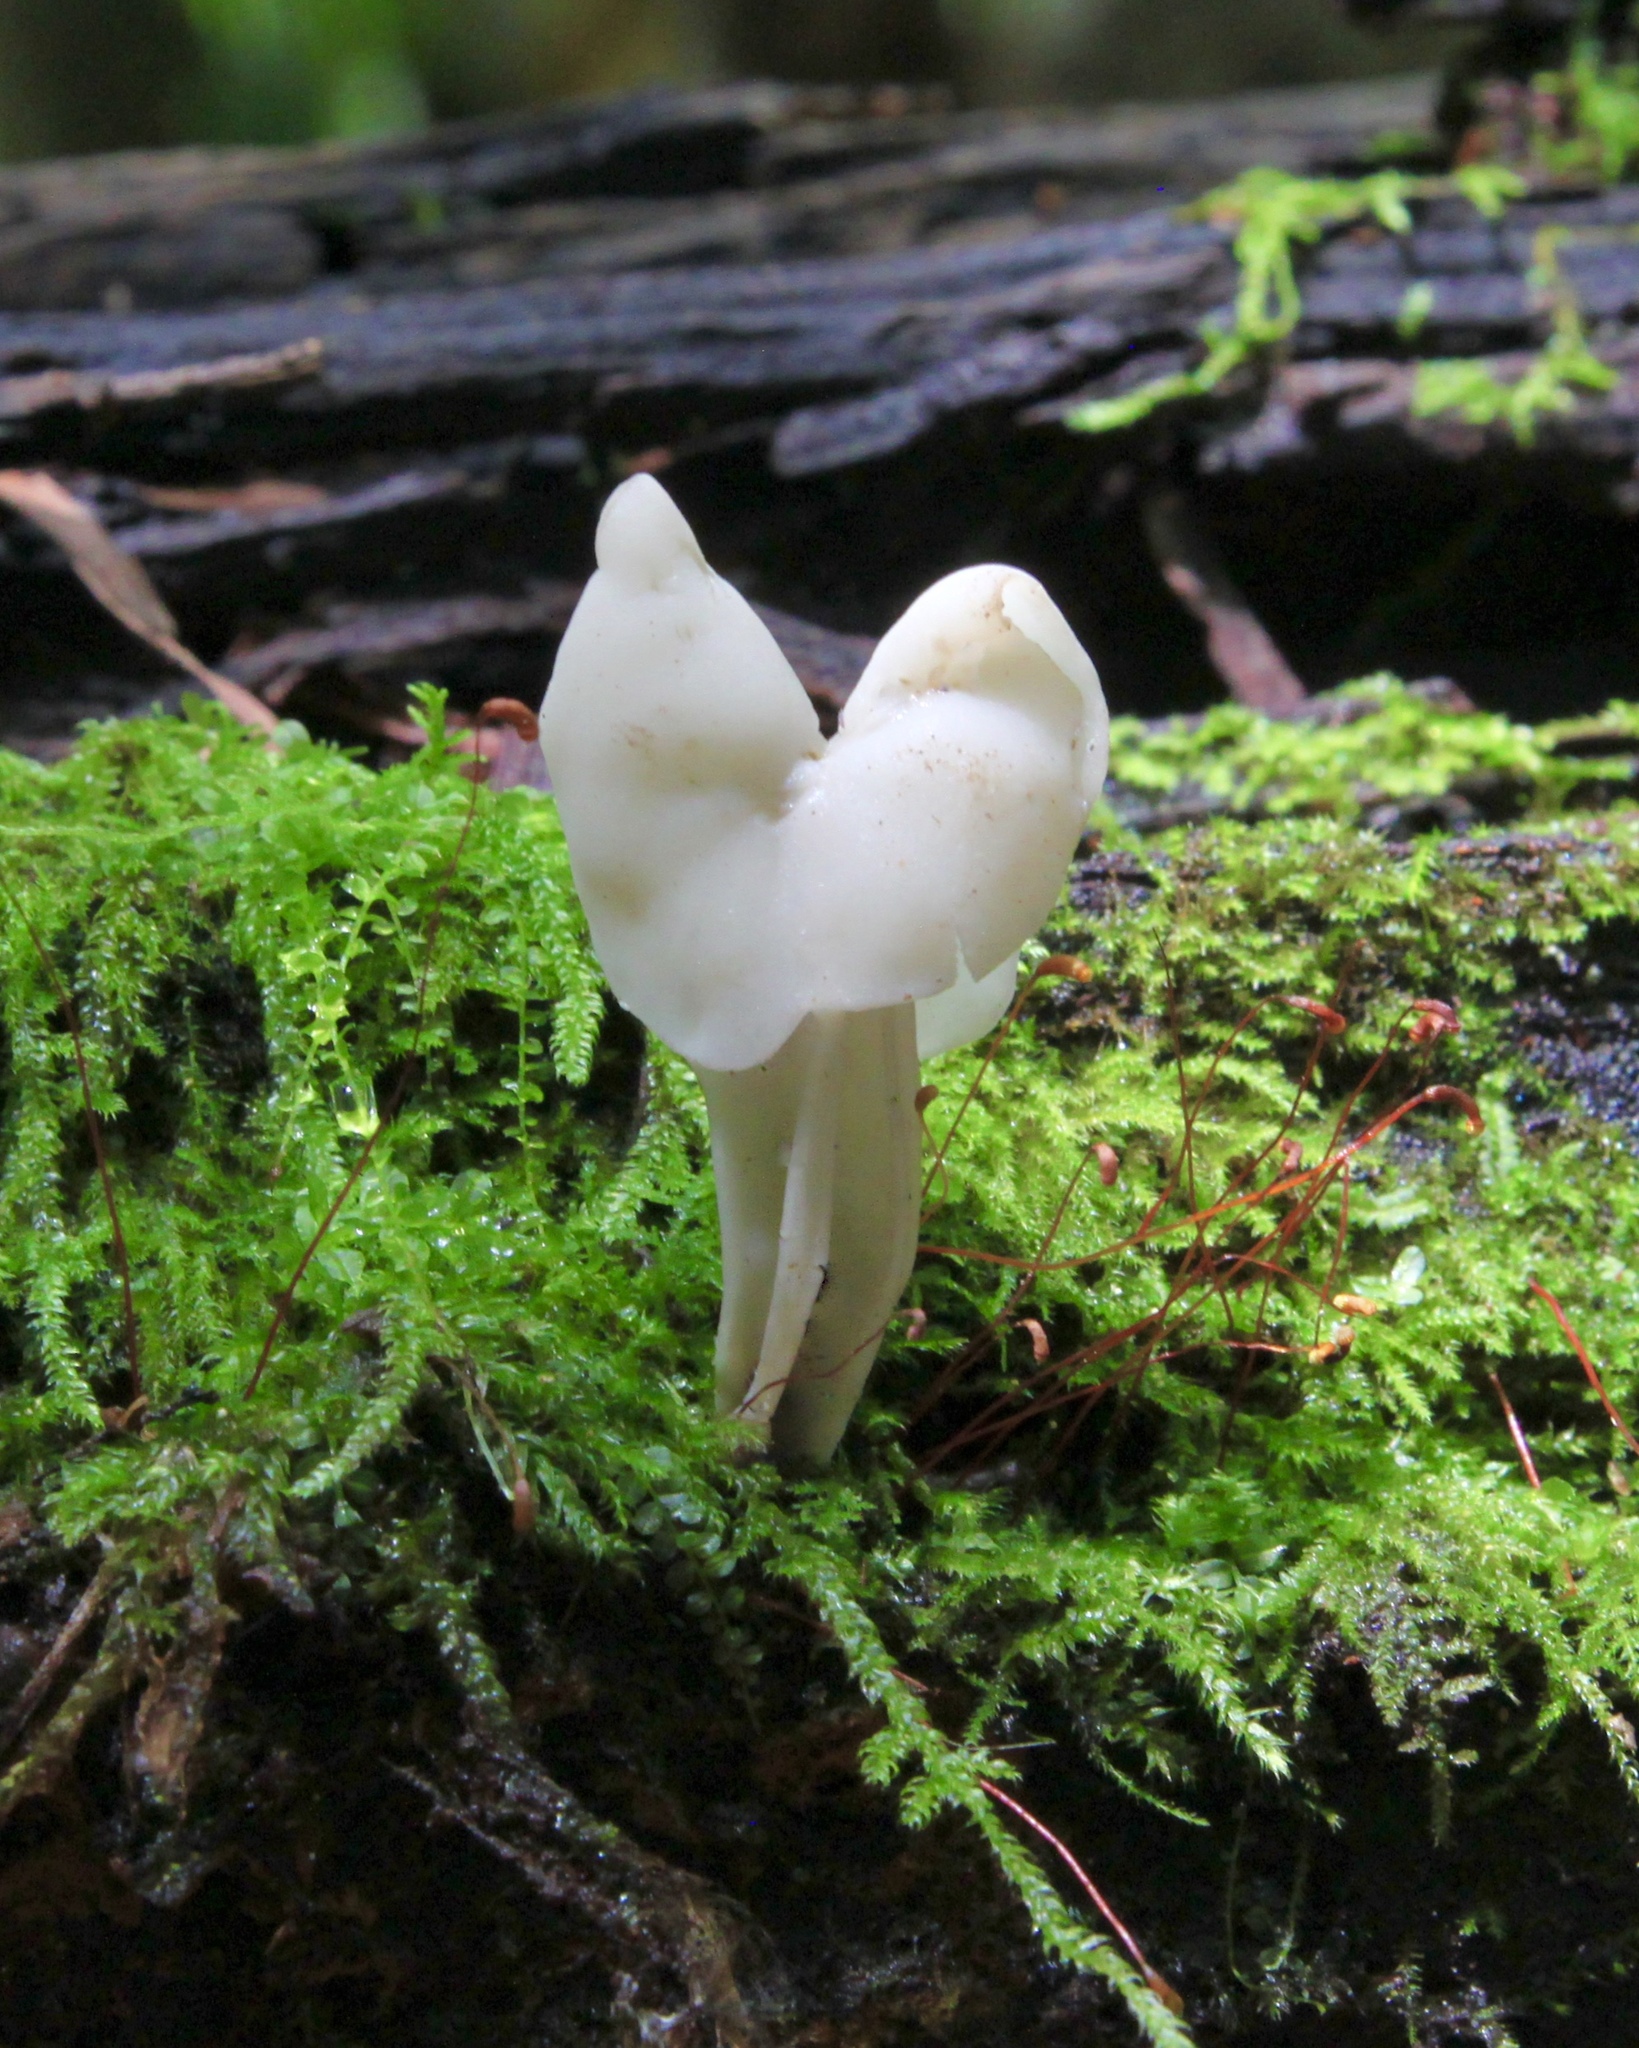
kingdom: Fungi
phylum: Ascomycota
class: Pezizomycetes
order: Pezizales
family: Helvellaceae
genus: Helvella
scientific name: Helvella crispa
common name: White saddle
